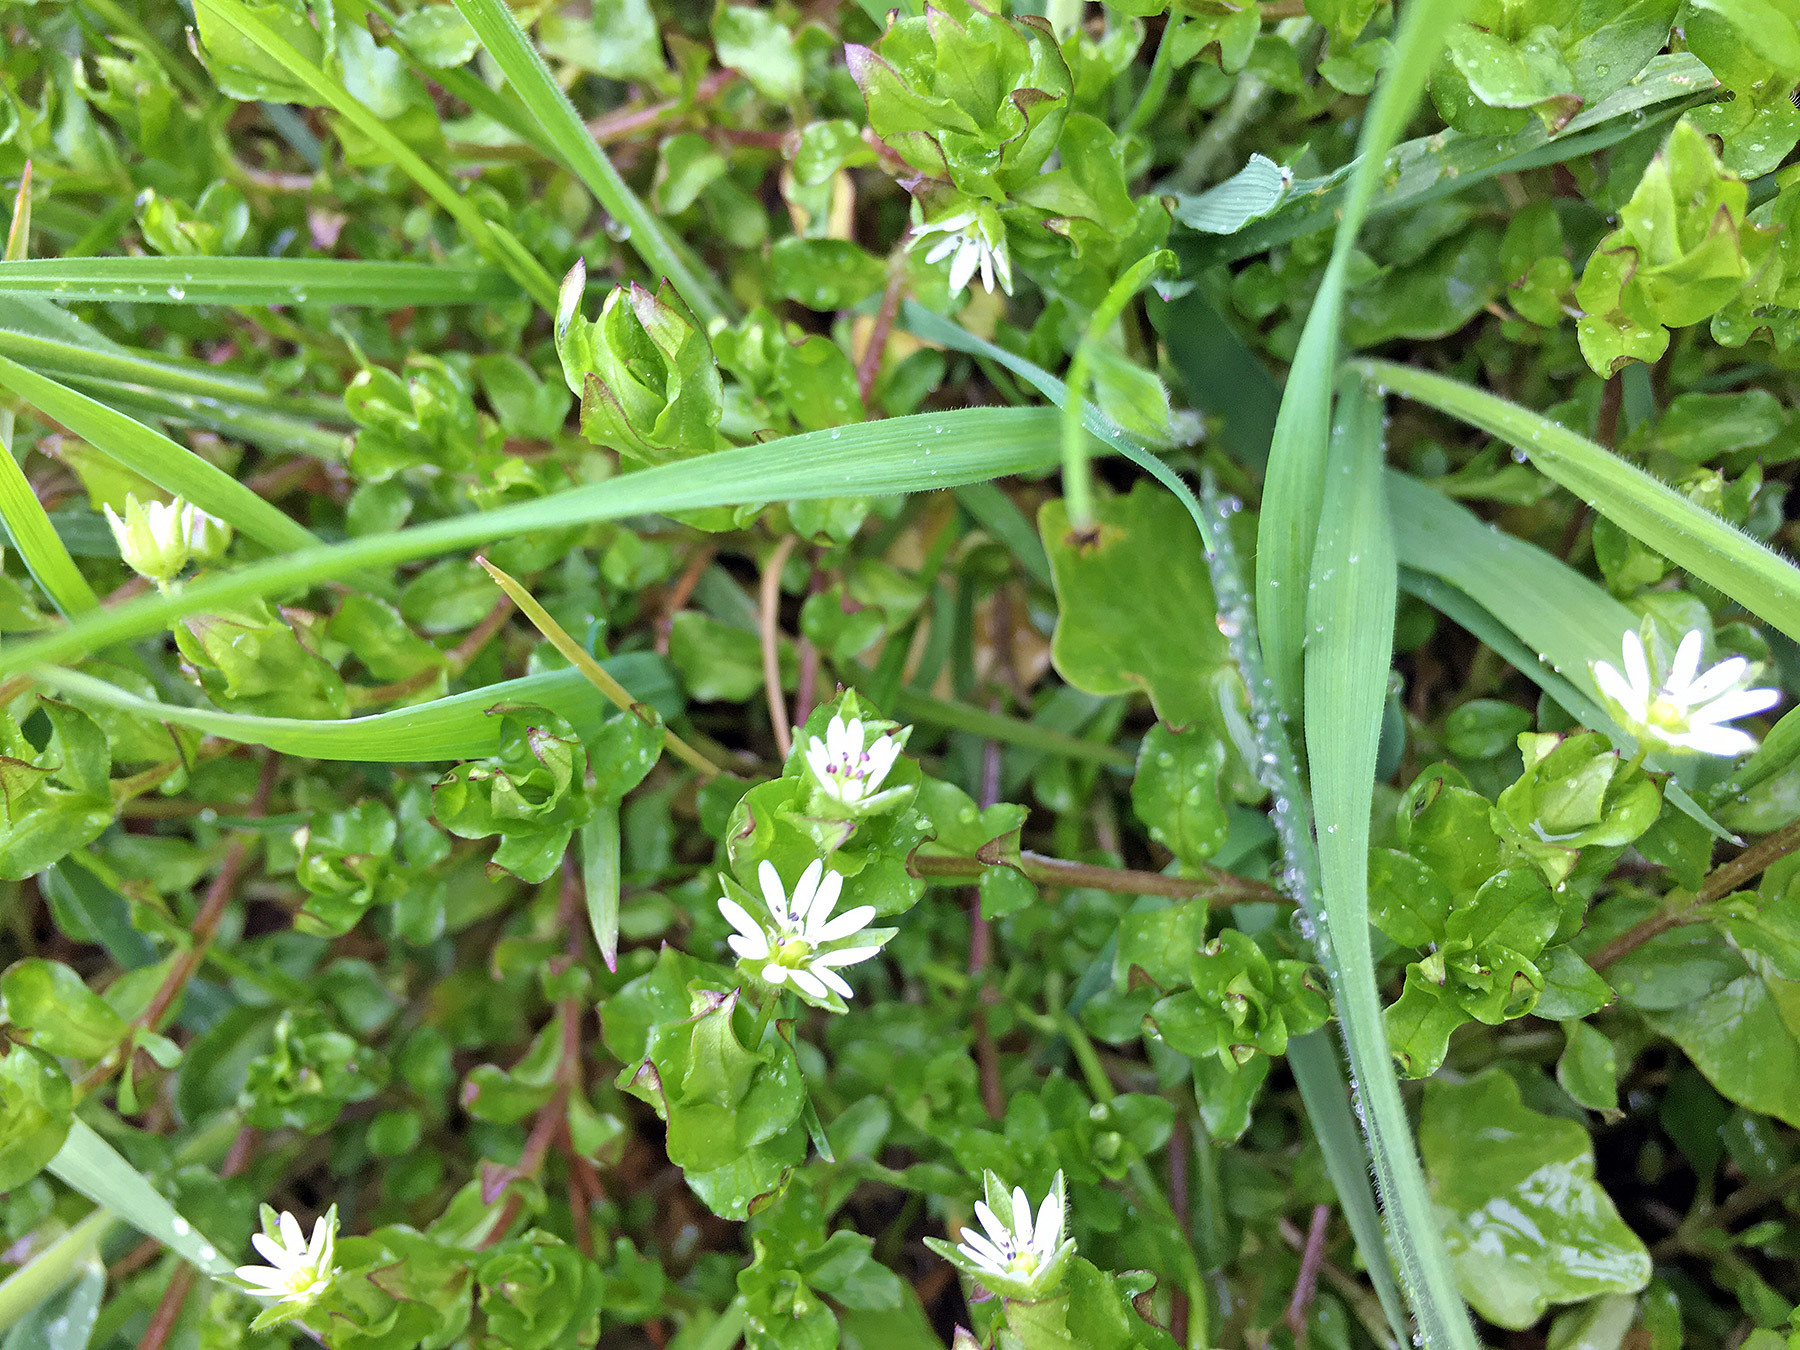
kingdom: Plantae
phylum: Tracheophyta
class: Magnoliopsida
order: Caryophyllales
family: Caryophyllaceae
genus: Stellaria
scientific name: Stellaria media
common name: Common chickweed
